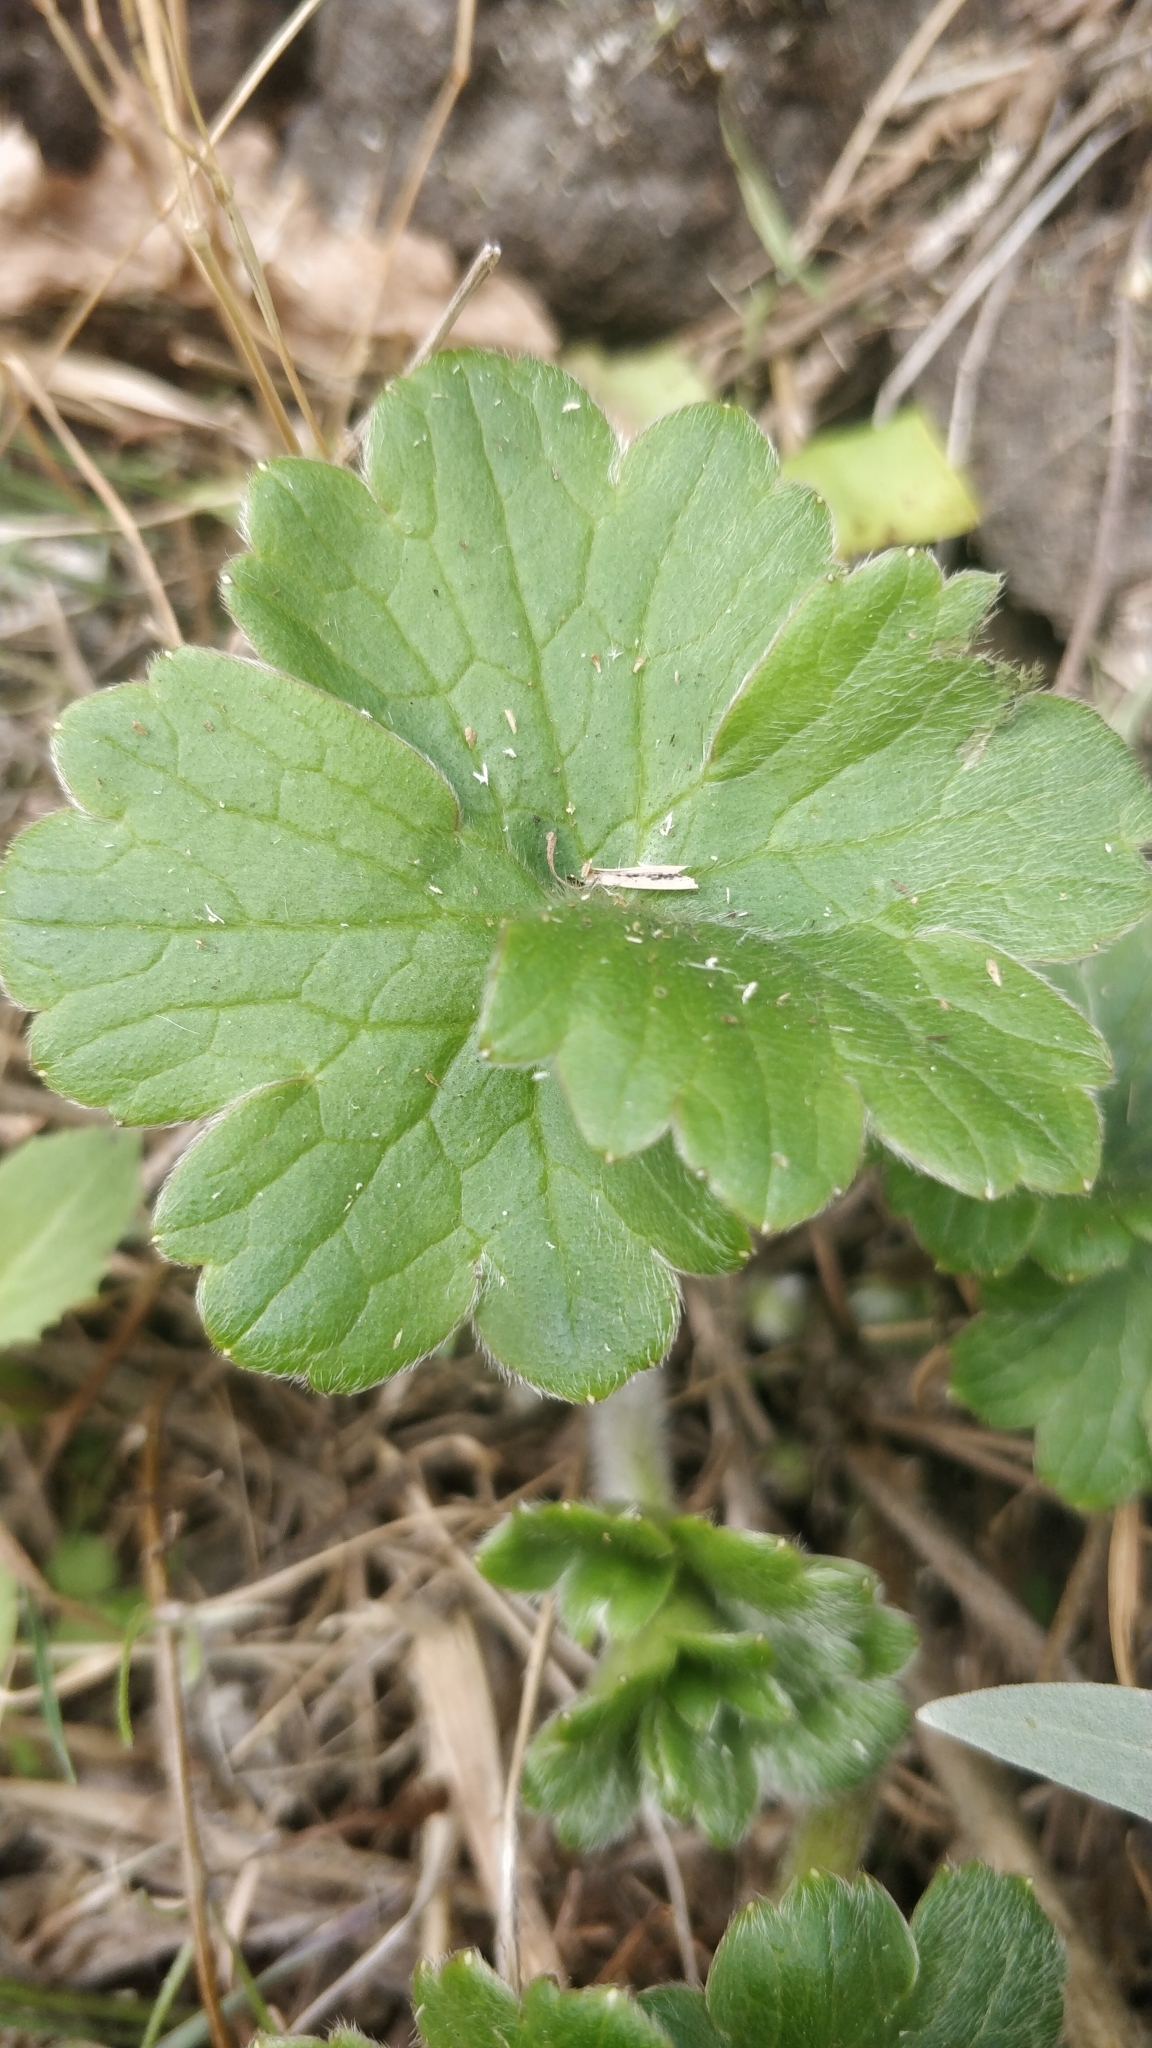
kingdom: Plantae
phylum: Tracheophyta
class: Magnoliopsida
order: Ranunculales
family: Ranunculaceae
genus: Ranunculus
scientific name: Ranunculus cortusifolius
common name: Azores buttercup
